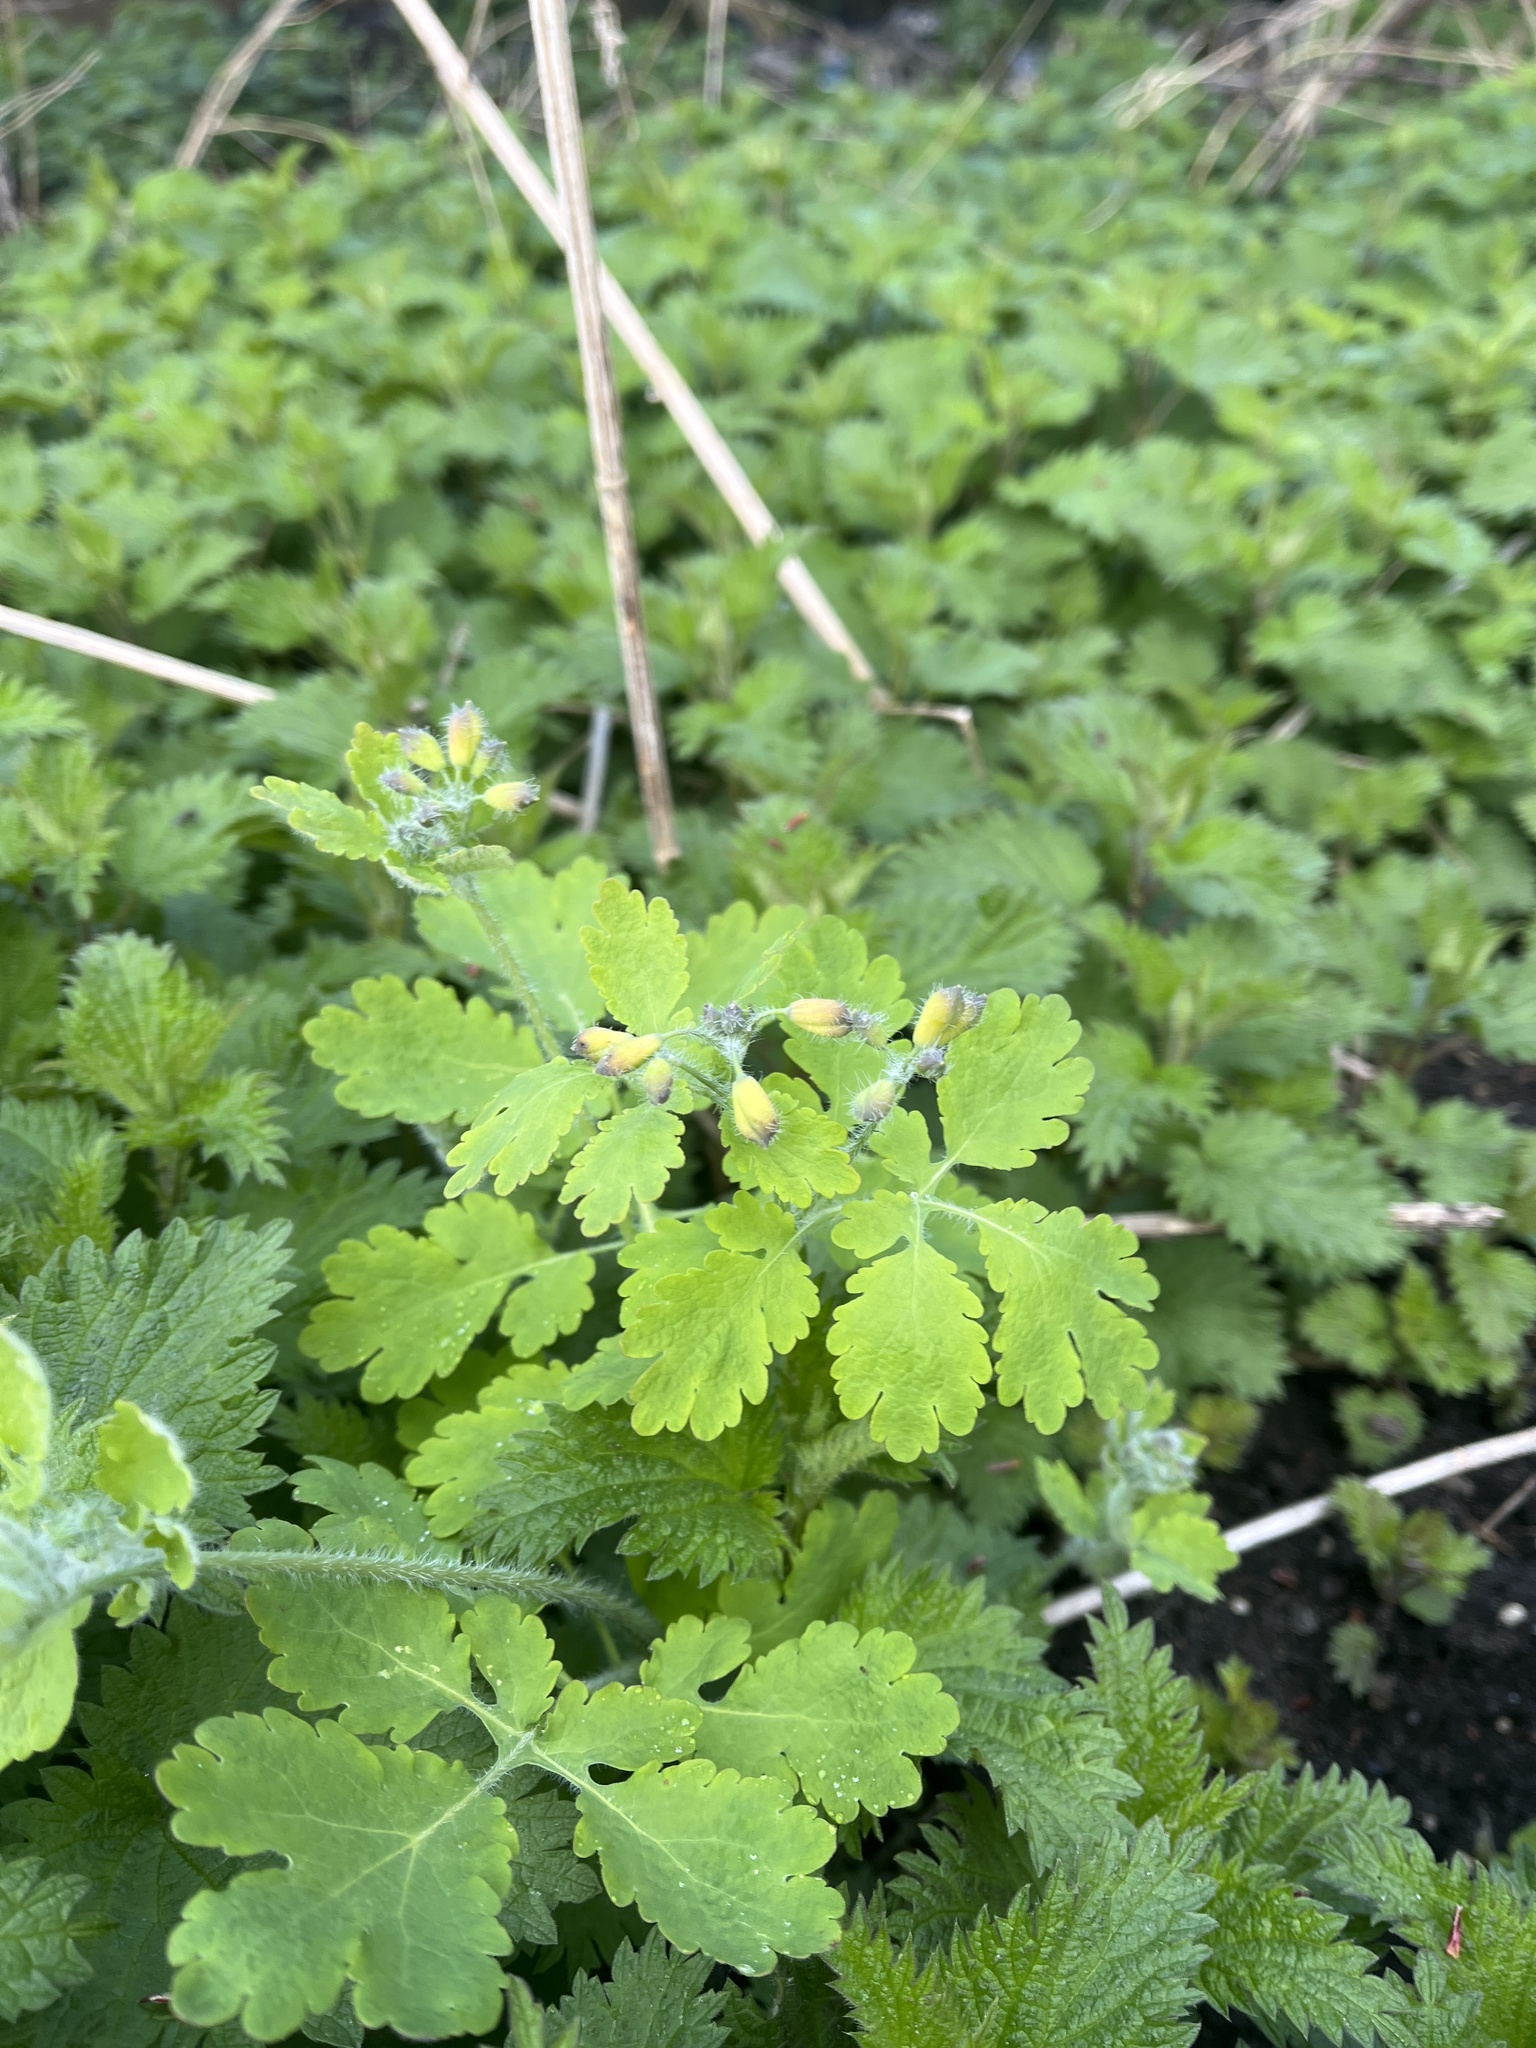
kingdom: Plantae
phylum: Tracheophyta
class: Magnoliopsida
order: Ranunculales
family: Papaveraceae
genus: Chelidonium
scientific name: Chelidonium majus
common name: Greater celandine
